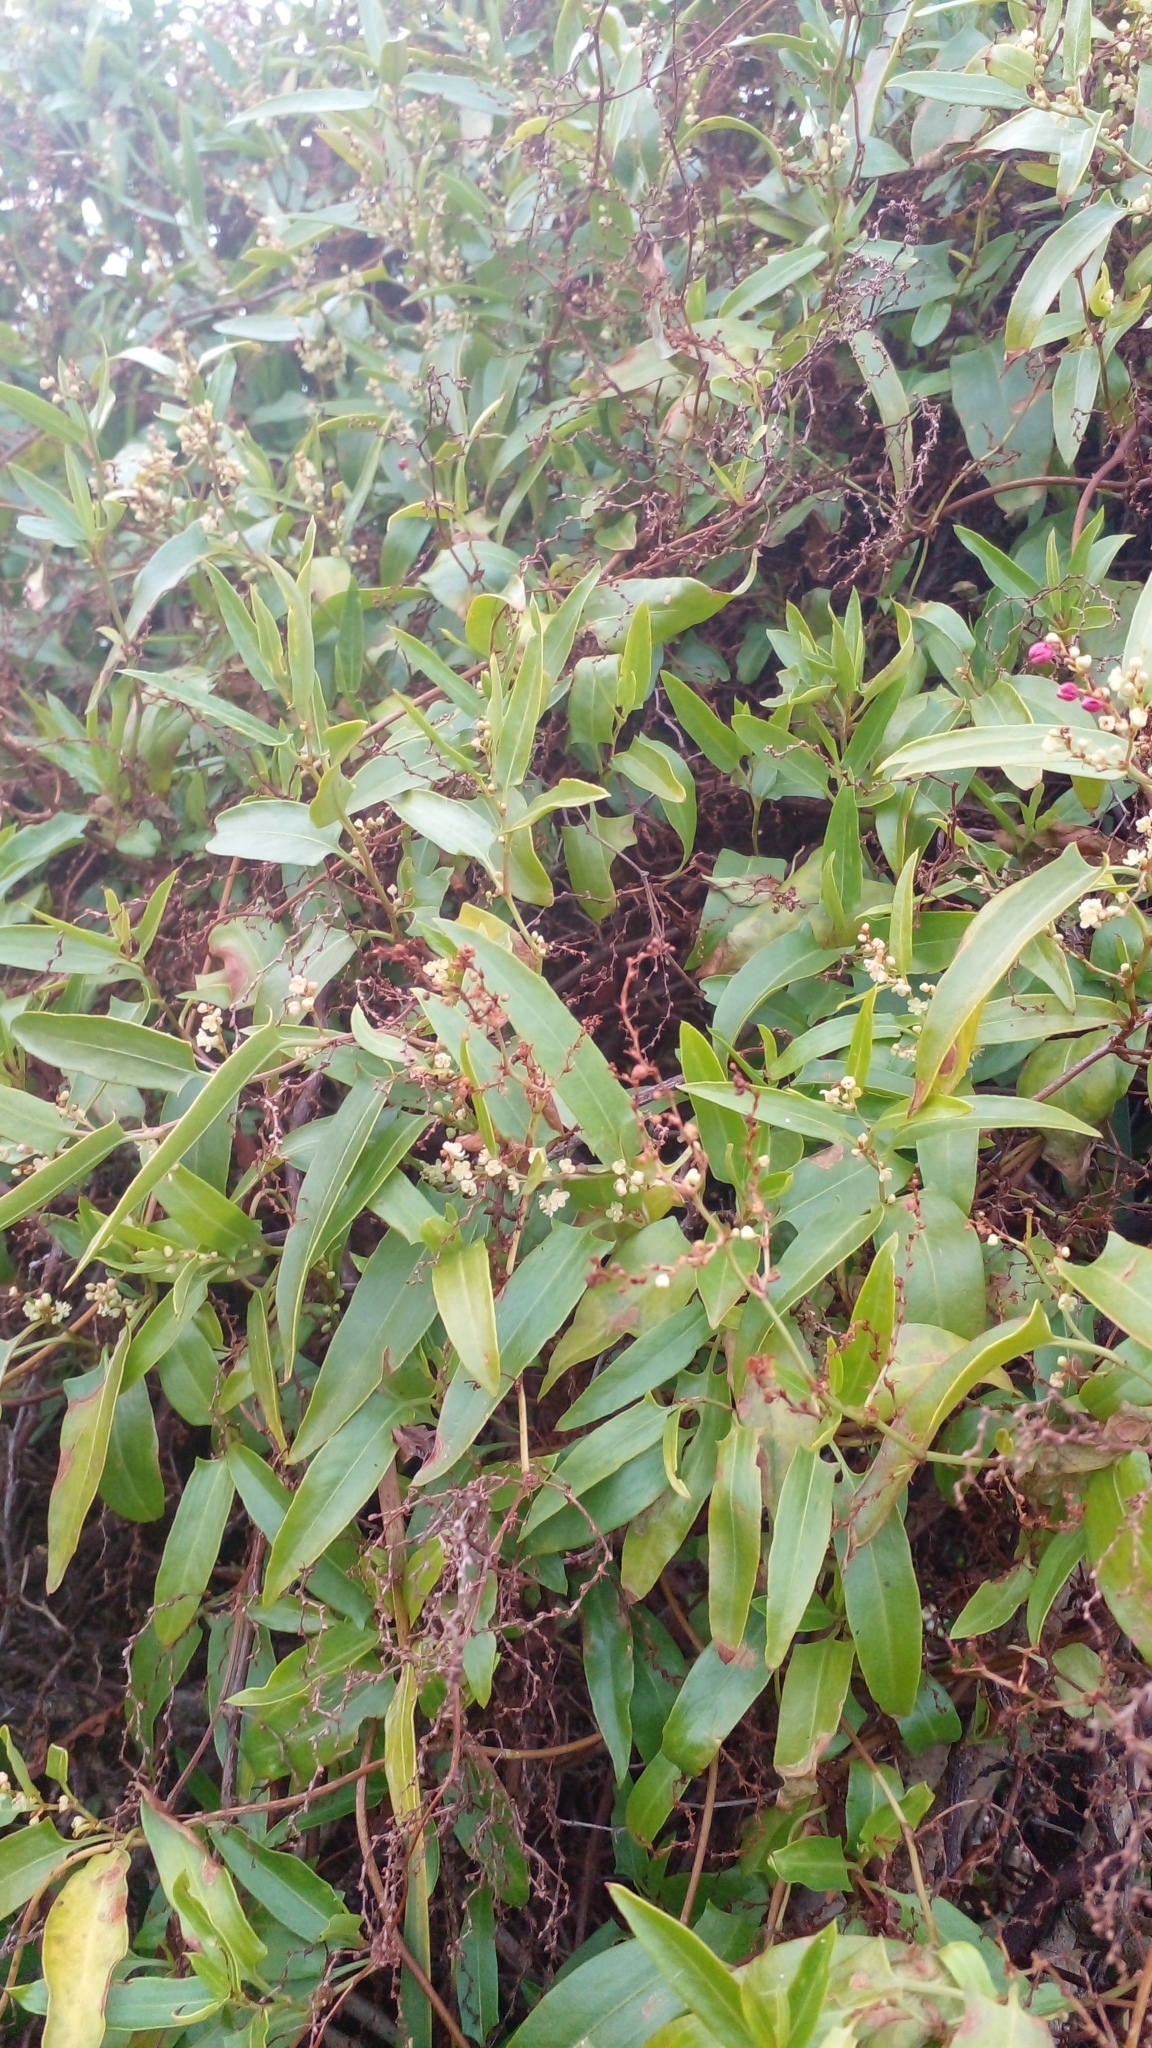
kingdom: Plantae
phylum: Tracheophyta
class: Magnoliopsida
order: Caryophyllales
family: Polygonaceae
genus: Persicaria
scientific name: Persicaria punctata
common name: Dotted smartweed
